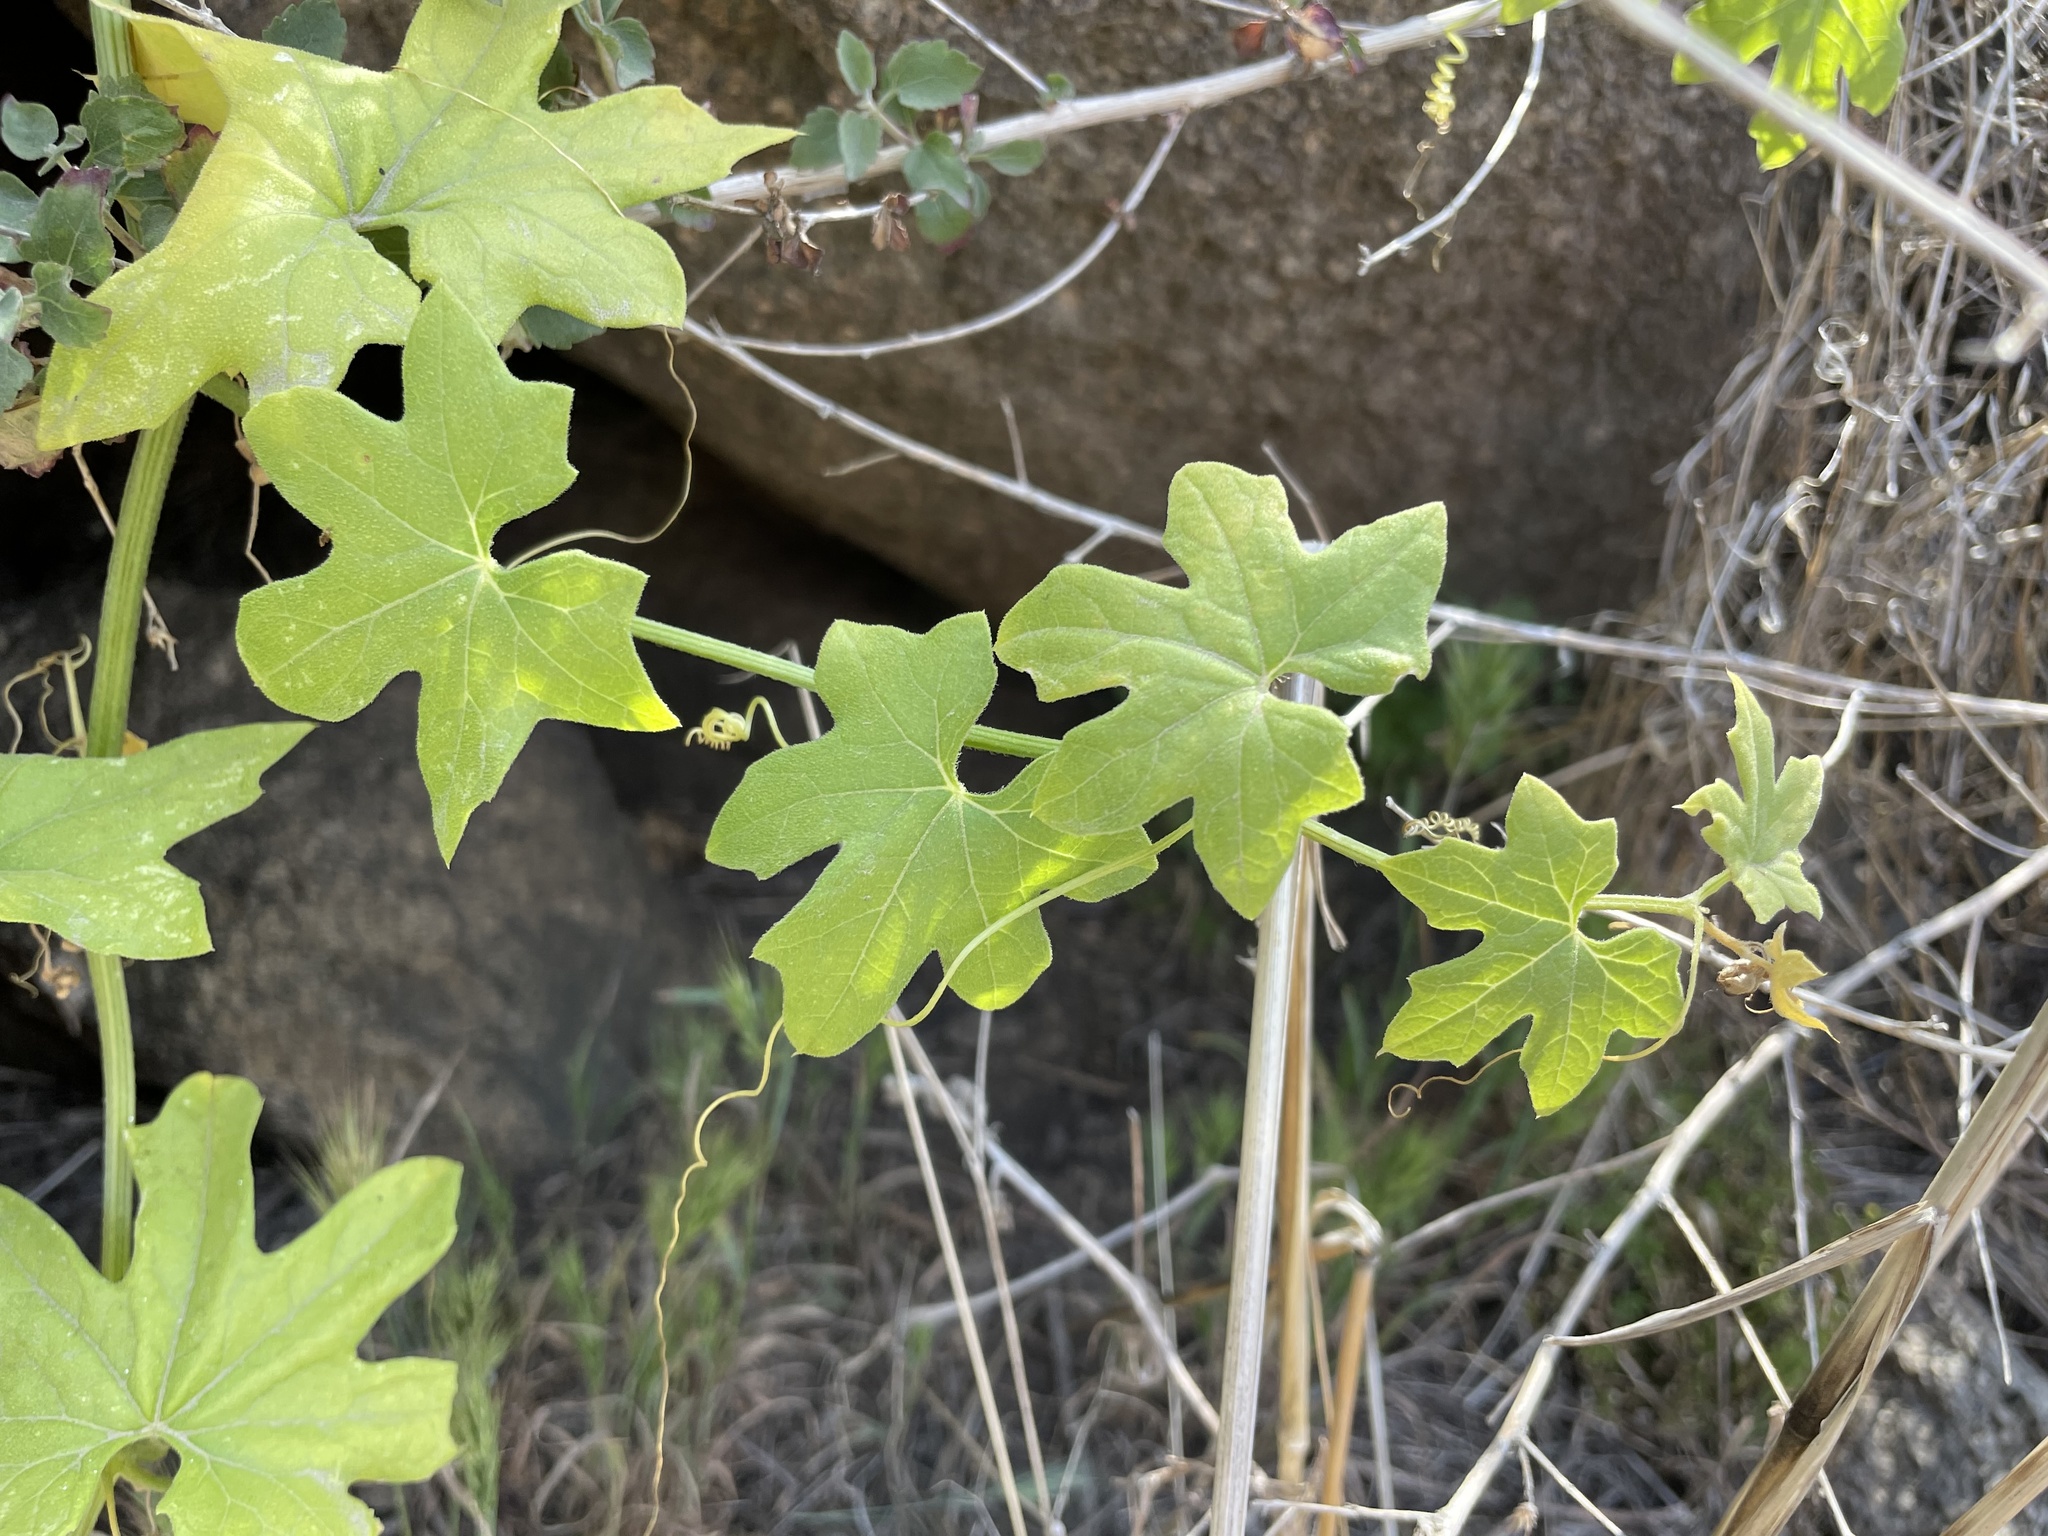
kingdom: Plantae
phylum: Tracheophyta
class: Magnoliopsida
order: Cucurbitales
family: Cucurbitaceae
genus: Marah
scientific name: Marah macrocarpa
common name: Cucamonga manroot
